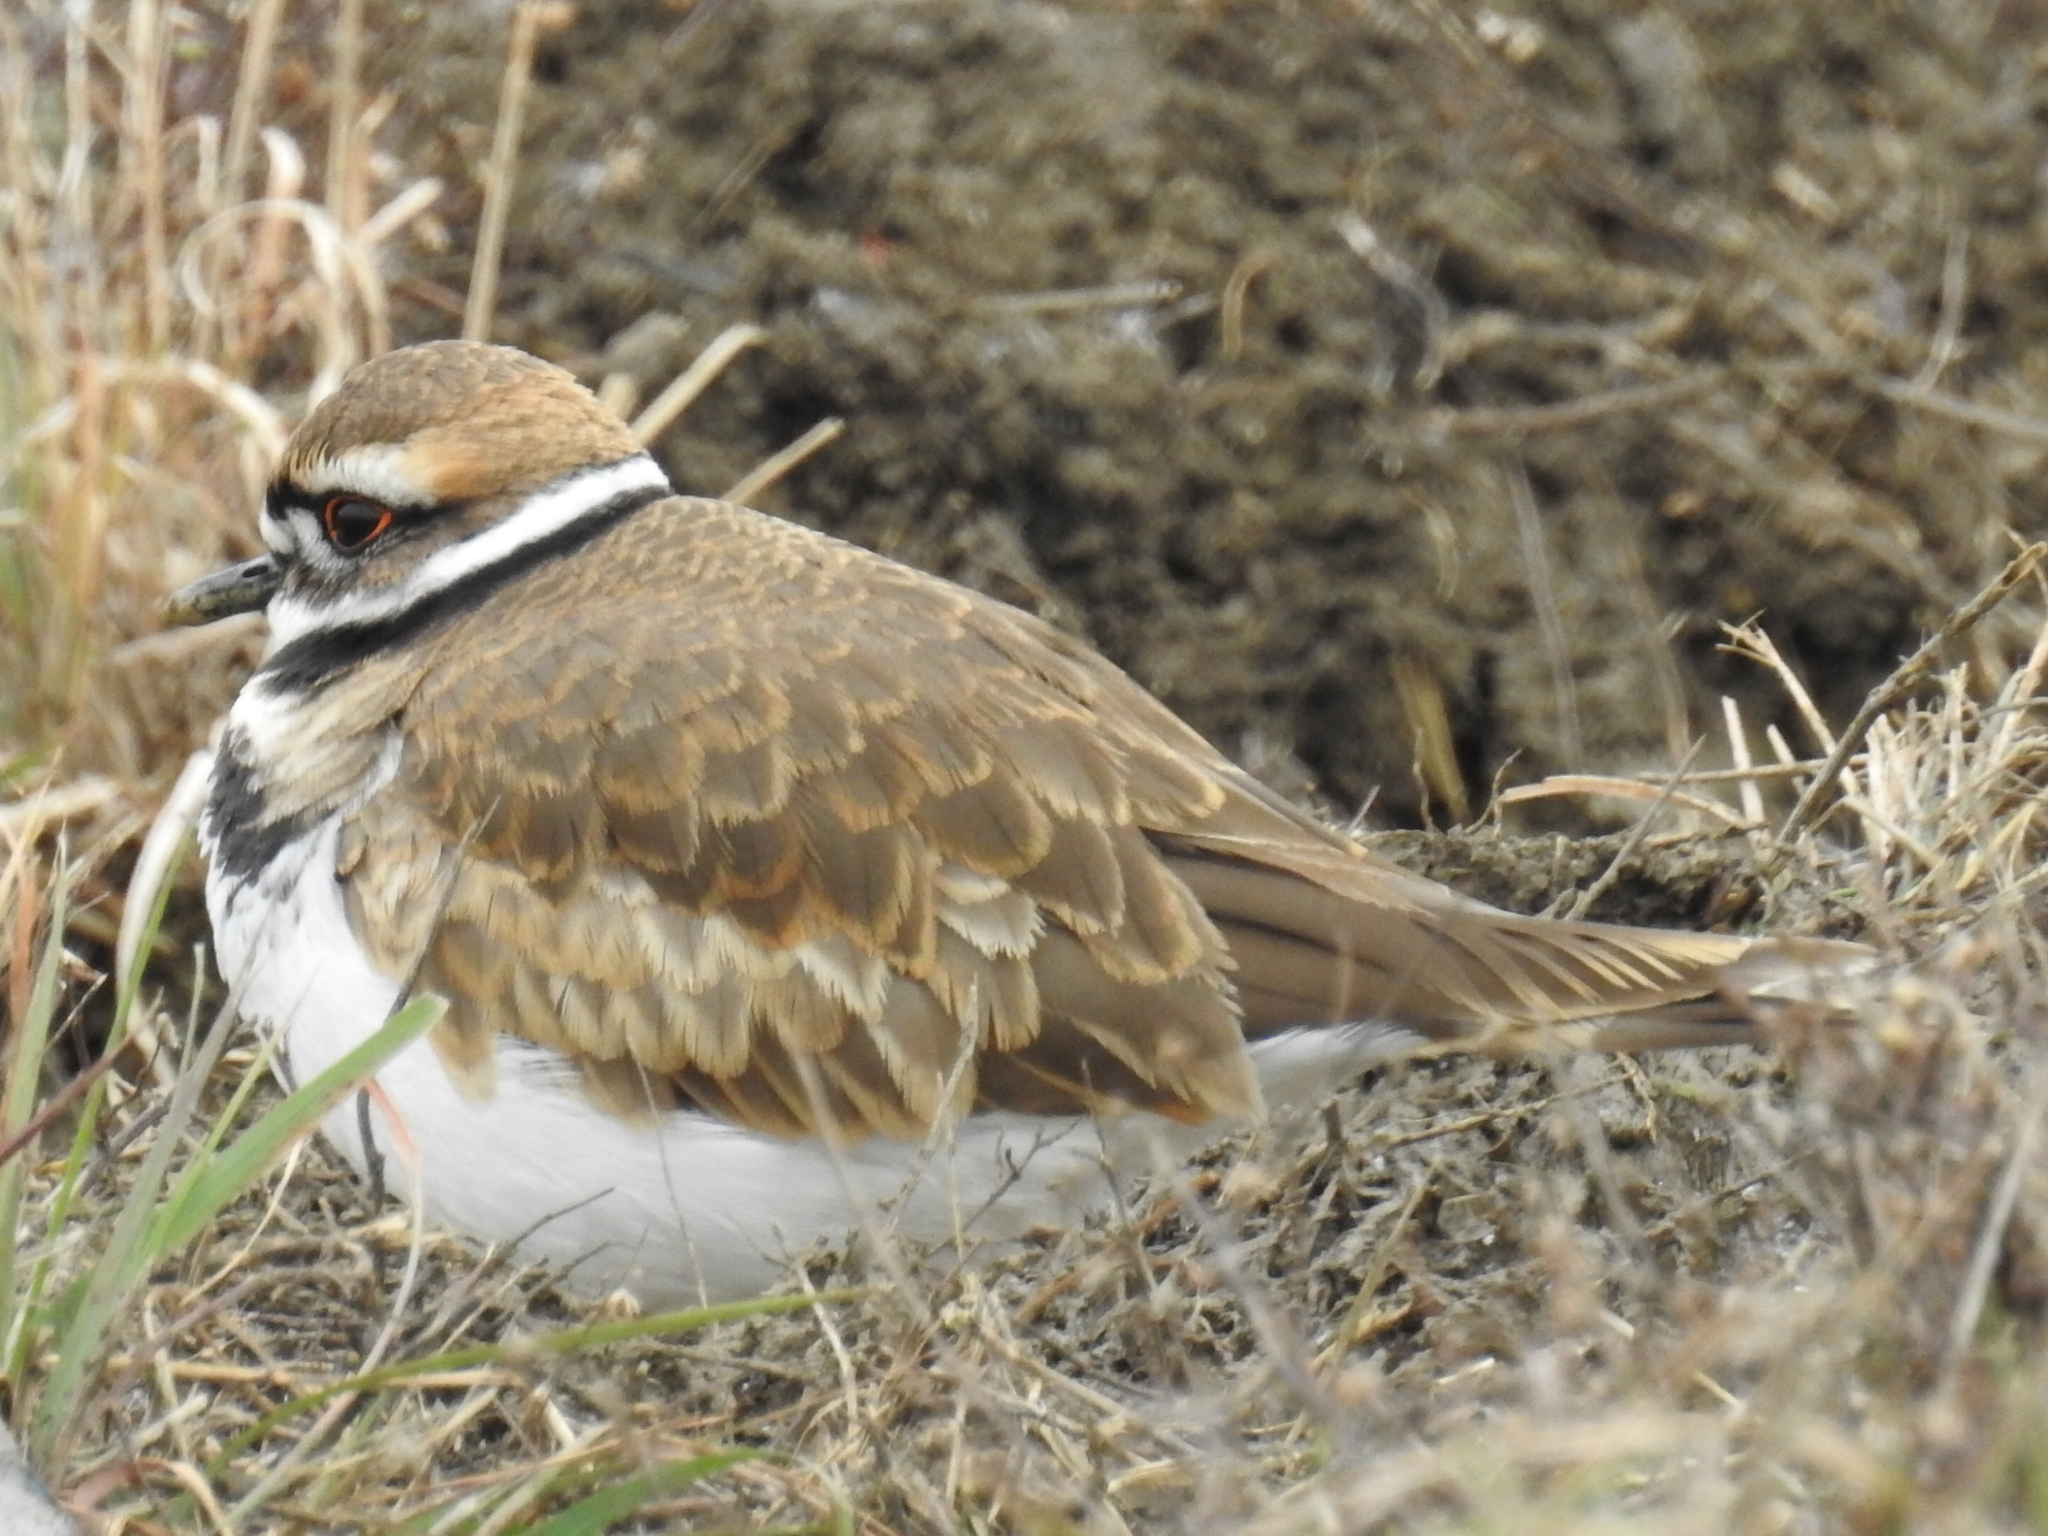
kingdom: Animalia
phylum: Chordata
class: Aves
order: Charadriiformes
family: Charadriidae
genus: Charadrius
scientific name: Charadrius vociferus
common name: Killdeer
